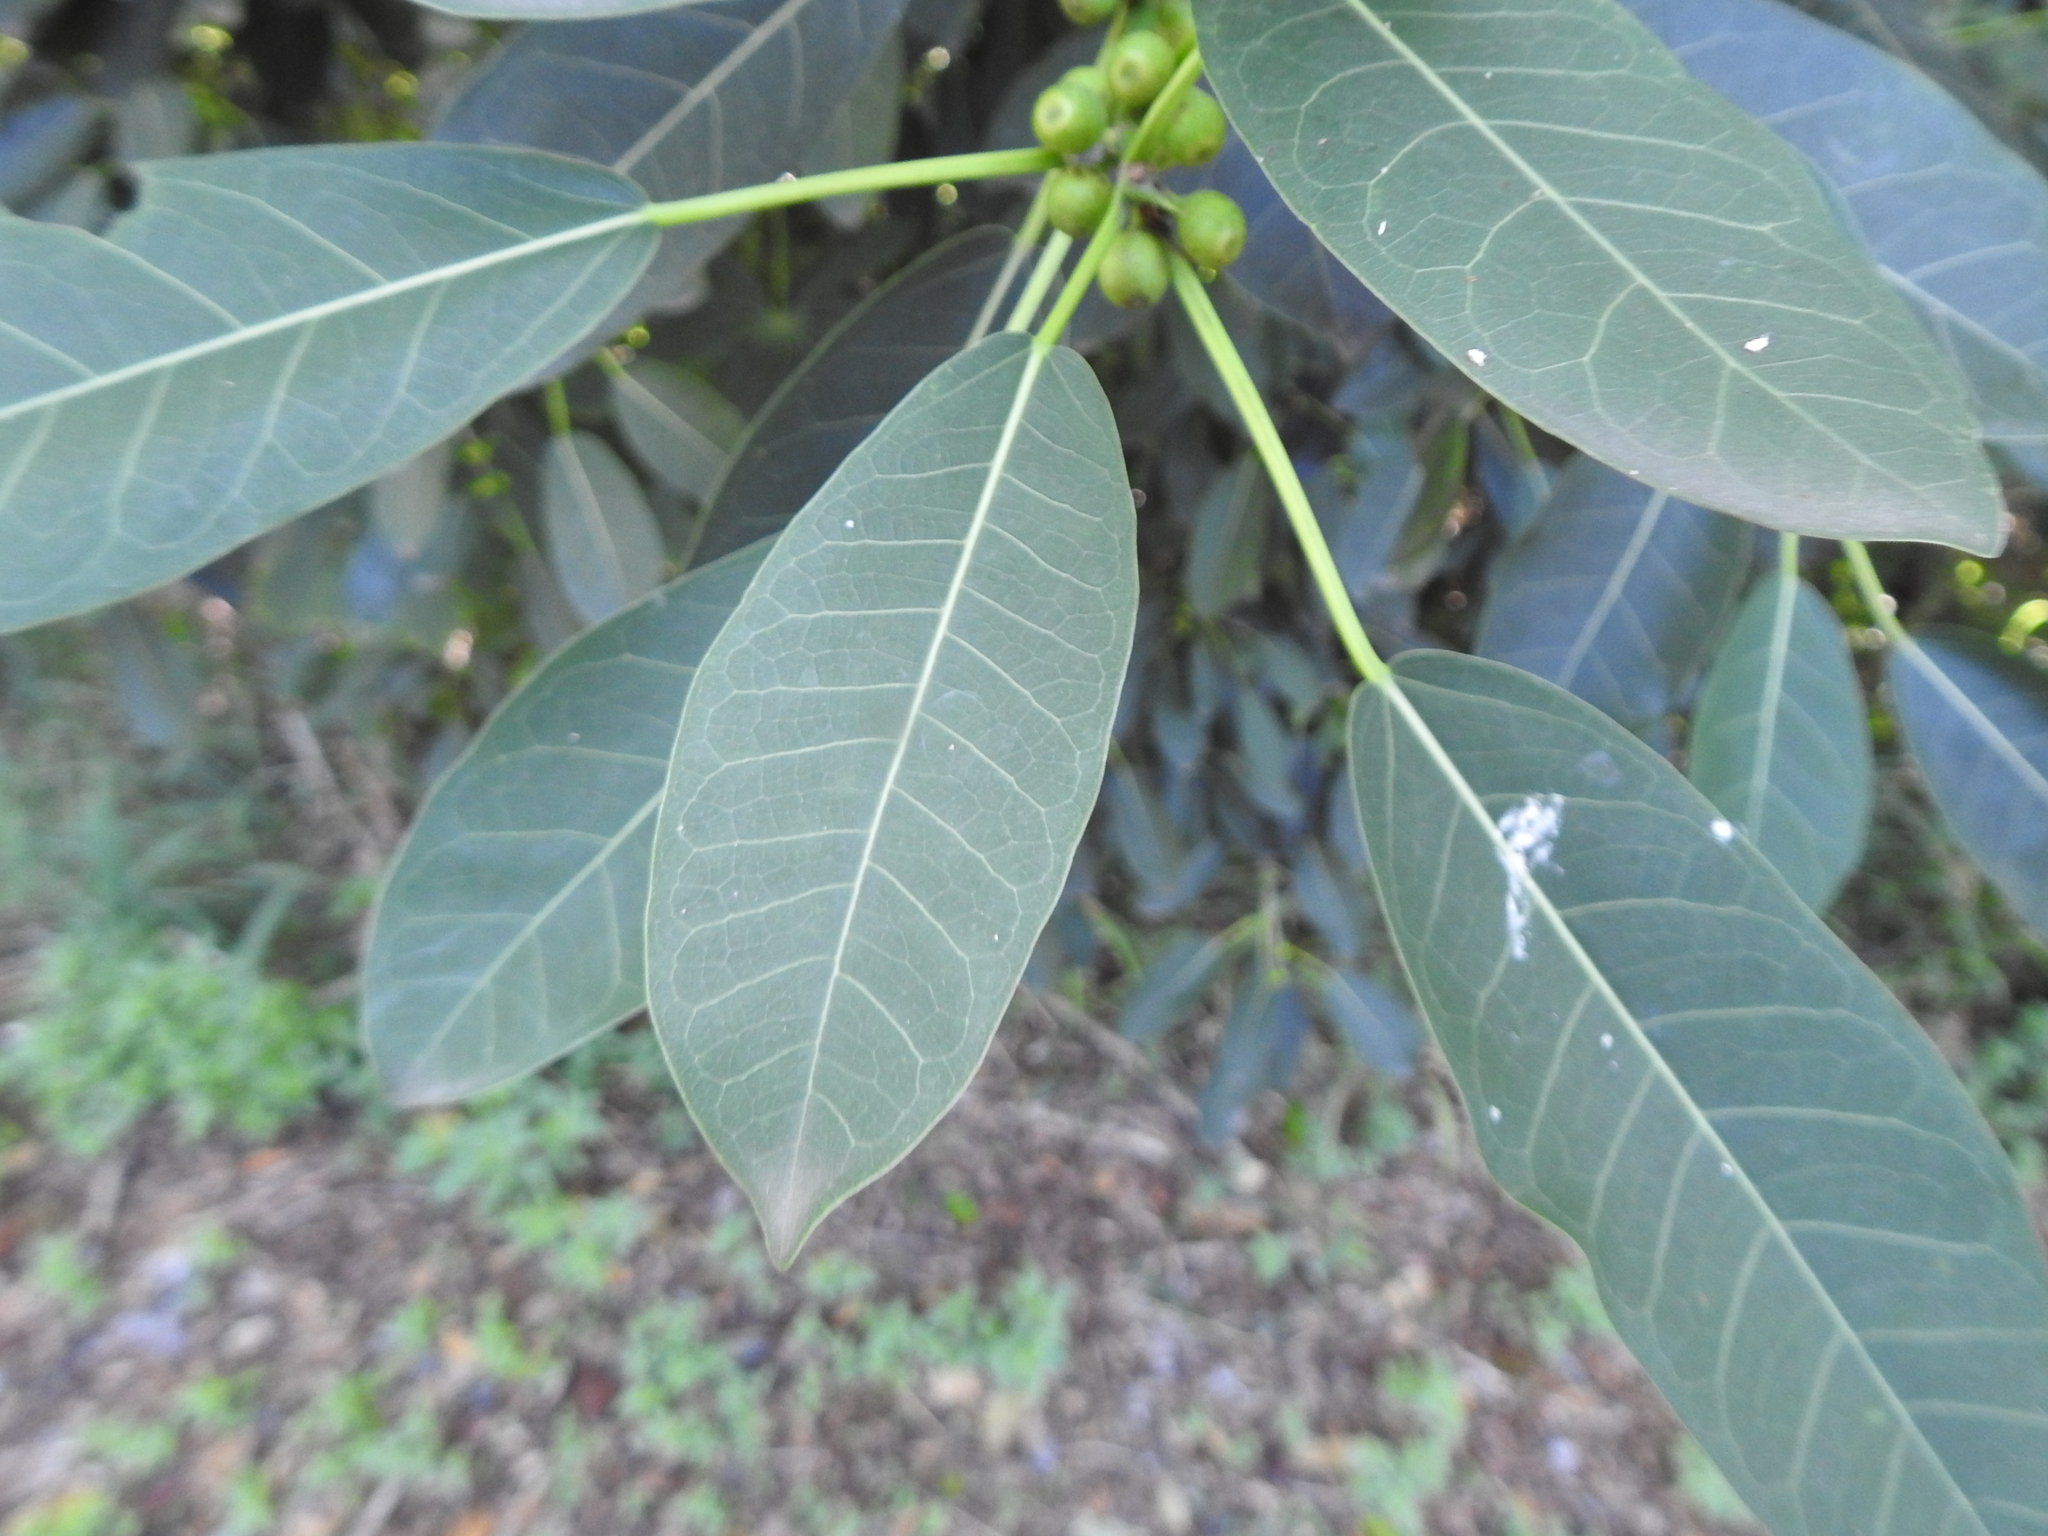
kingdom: Plantae
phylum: Tracheophyta
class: Magnoliopsida
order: Rosales
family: Moraceae
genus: Ficus
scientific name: Ficus luschnathiana
